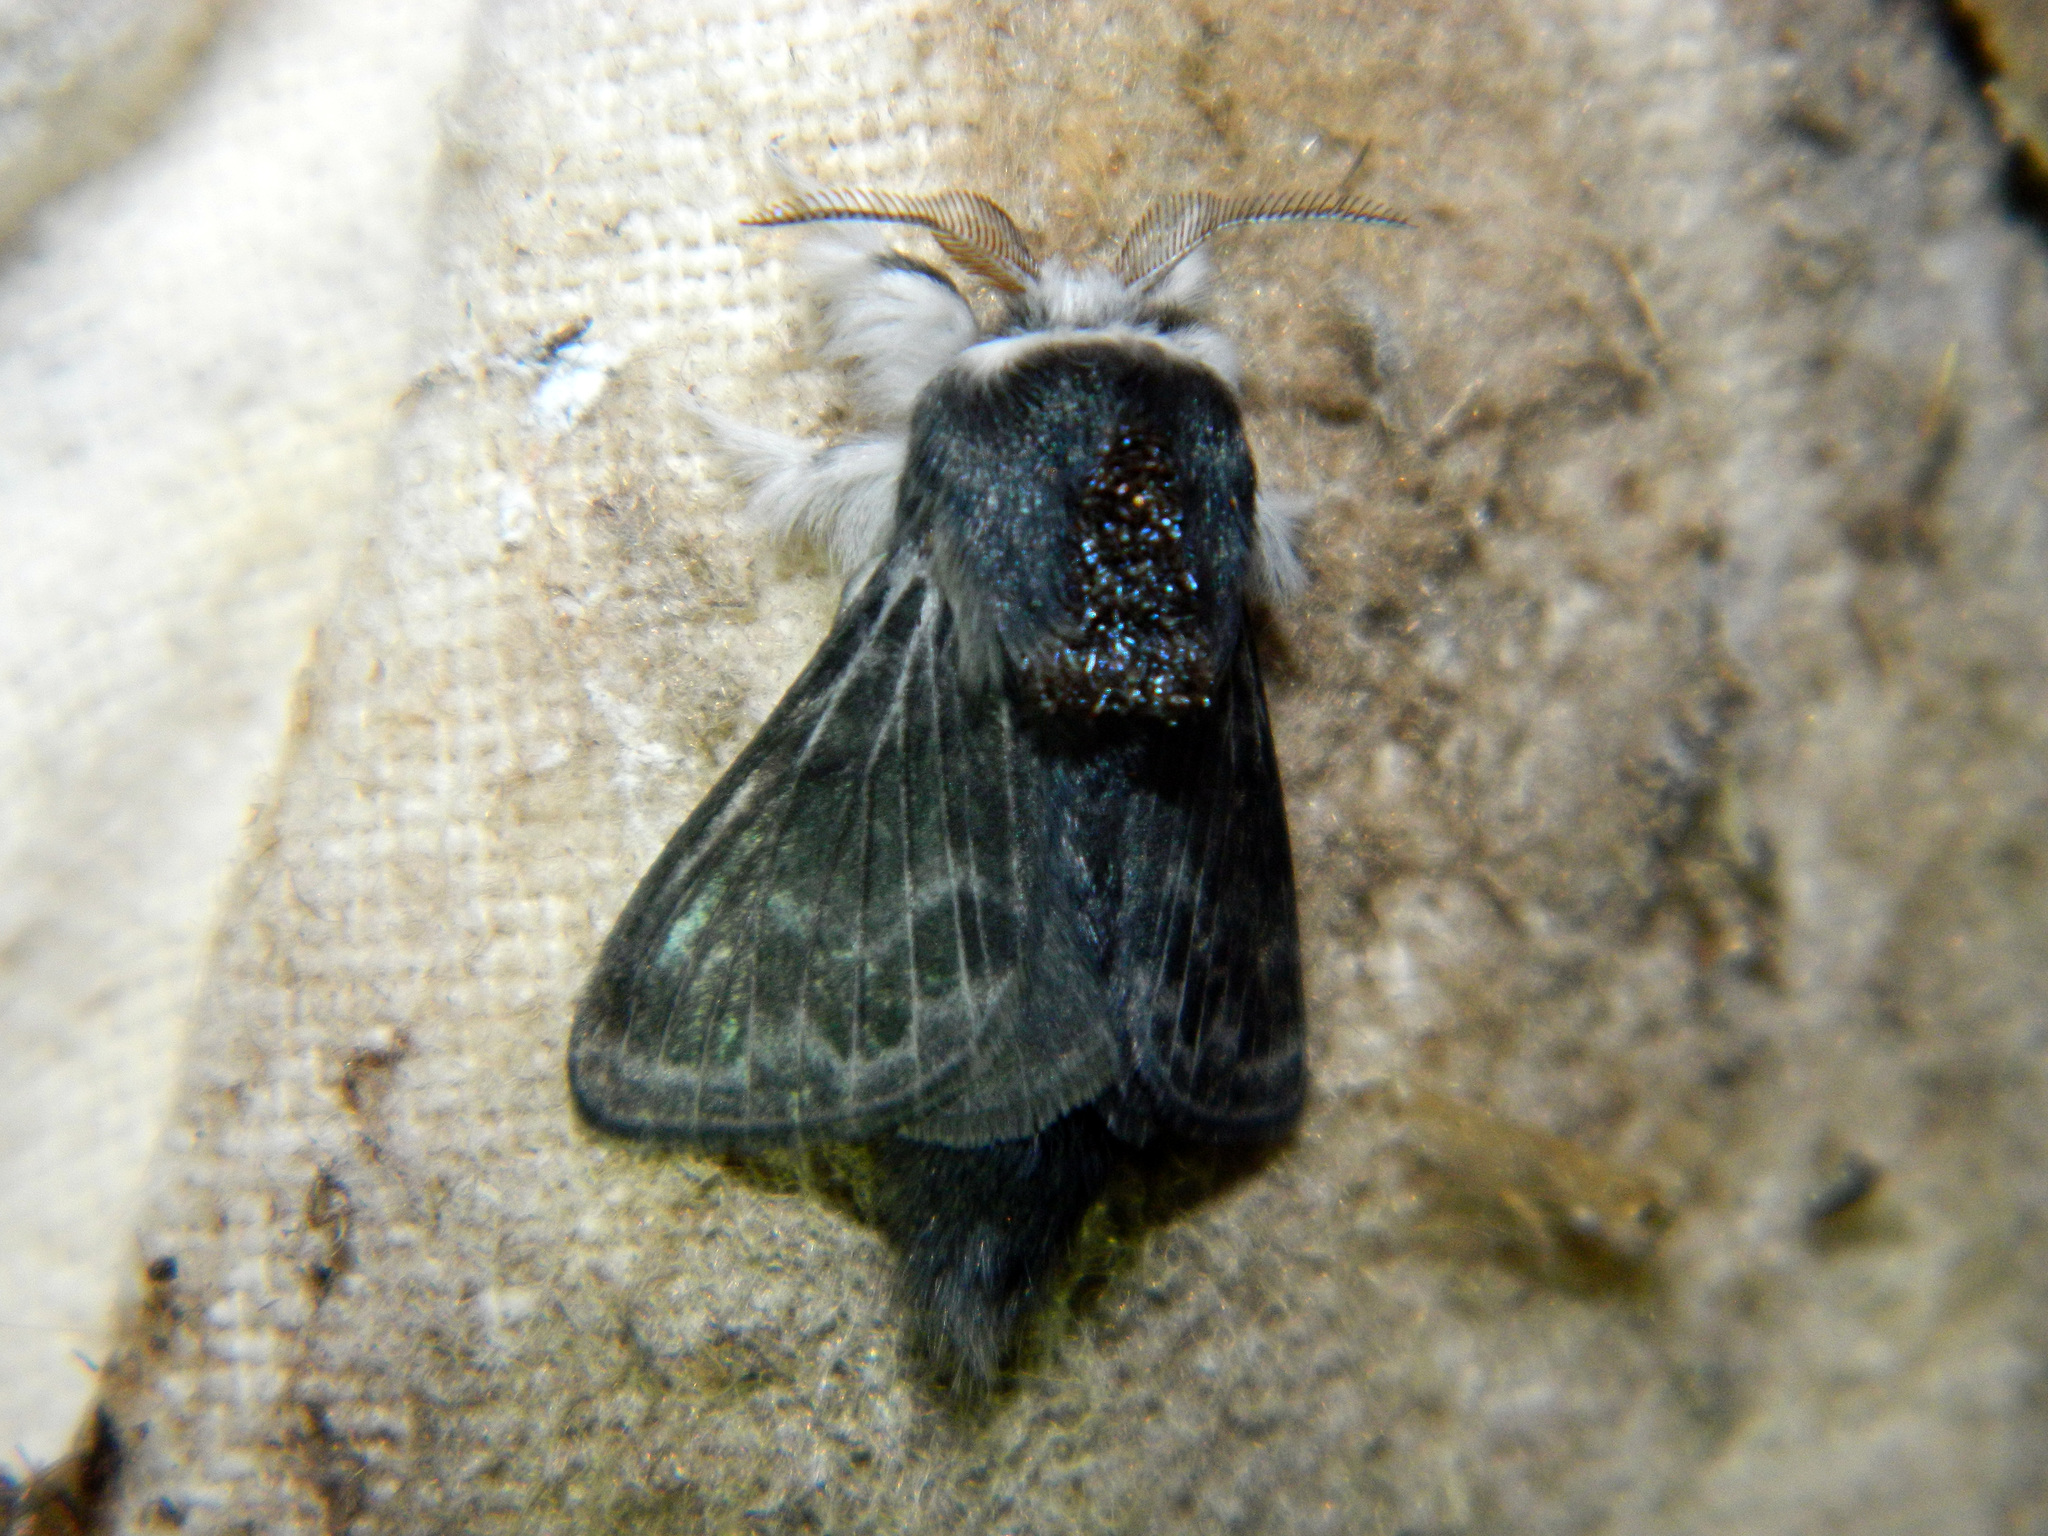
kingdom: Animalia
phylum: Arthropoda
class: Insecta
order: Lepidoptera
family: Lasiocampidae
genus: Tolype
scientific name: Tolype laricis
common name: Larch tolype moth
